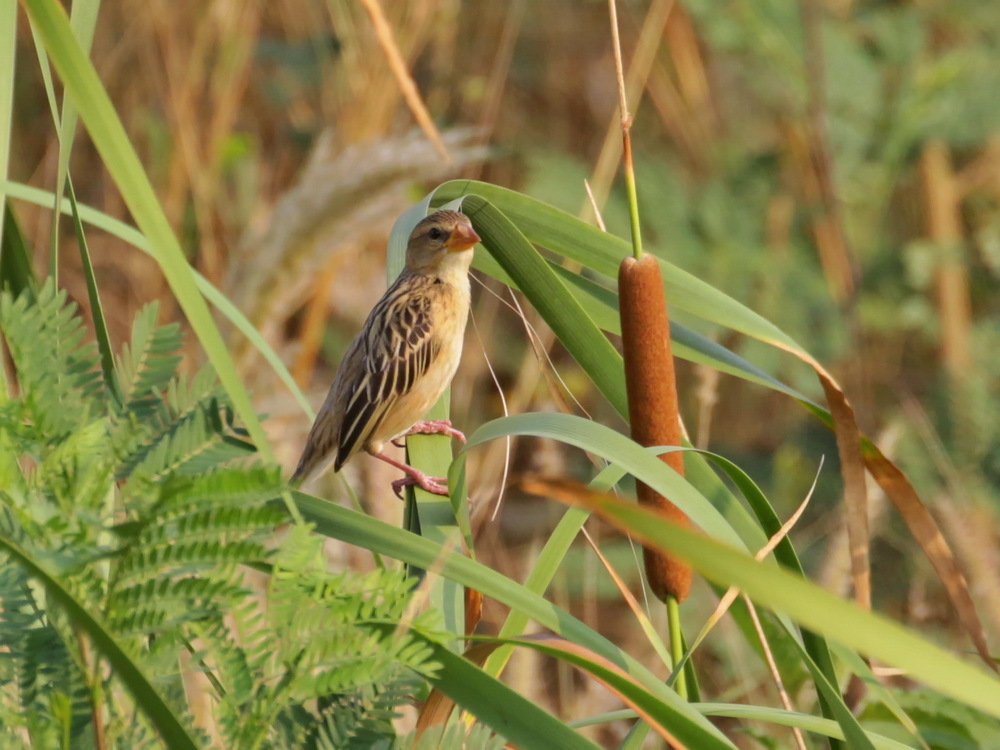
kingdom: Animalia
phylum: Chordata
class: Aves
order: Passeriformes
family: Ploceidae
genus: Ploceus
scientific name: Ploceus philippinus
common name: Baya weaver
